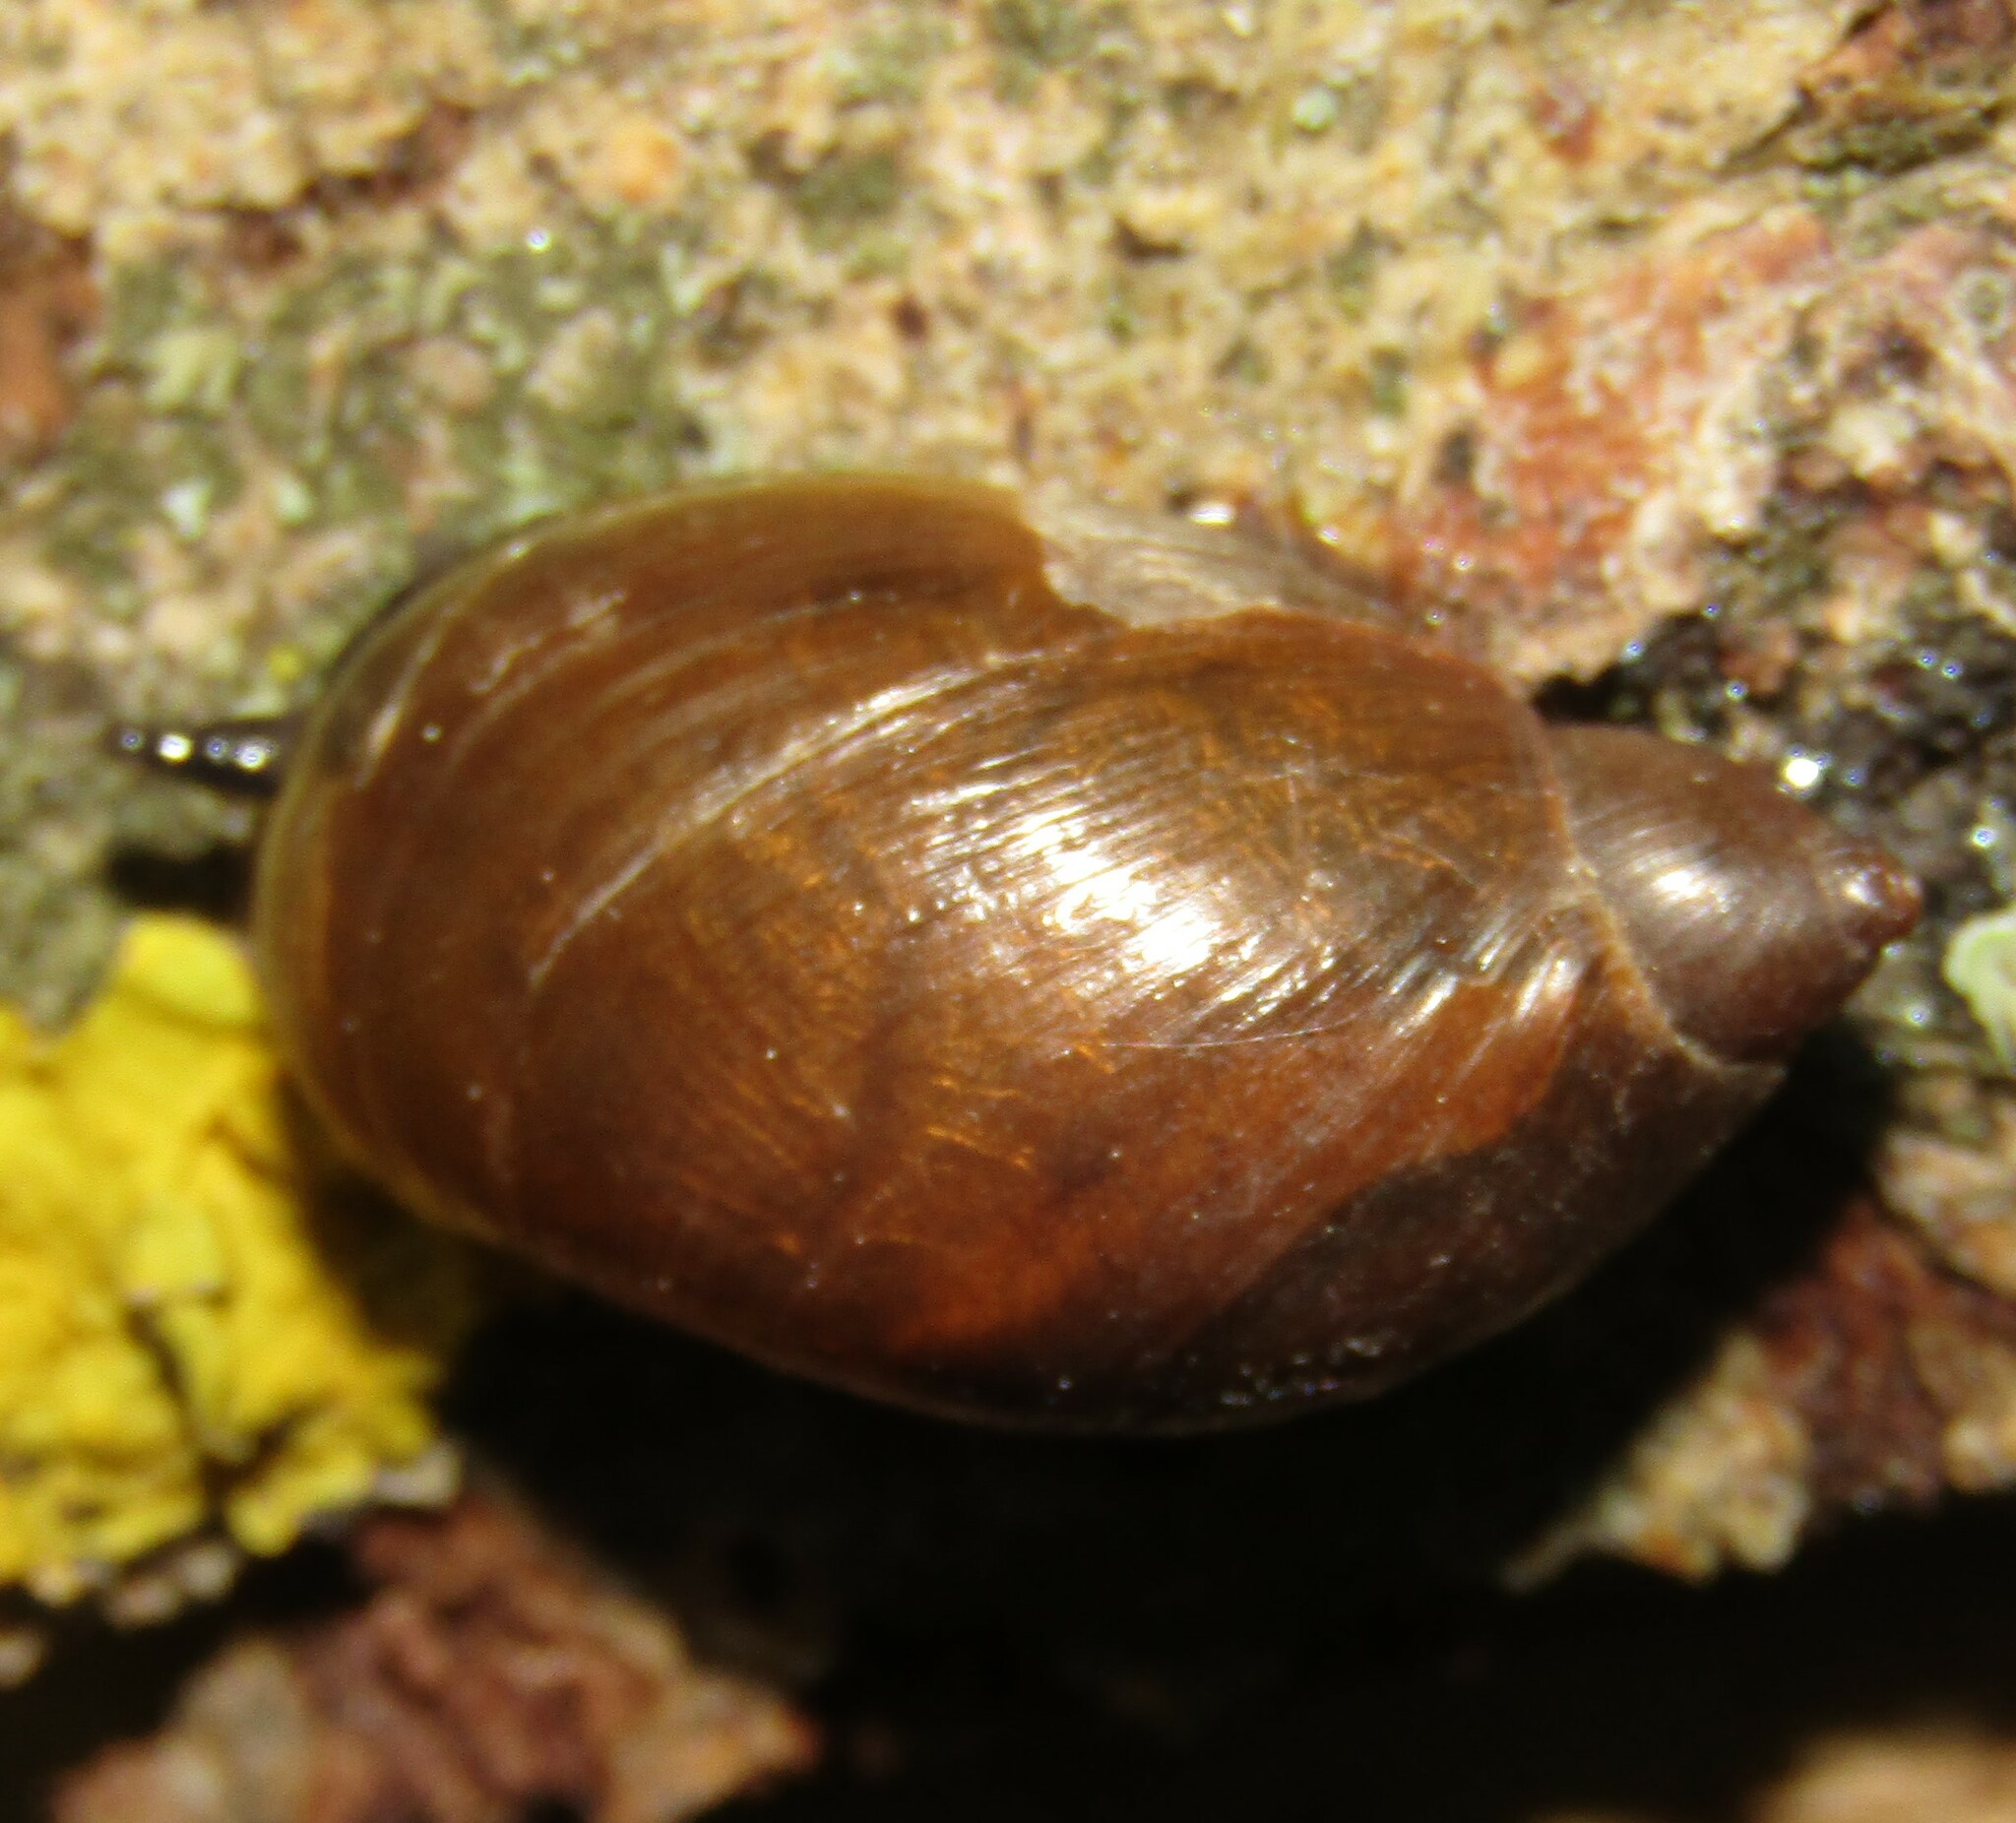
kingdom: Animalia
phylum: Mollusca
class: Gastropoda
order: Stylommatophora
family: Succineidae
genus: Succinea
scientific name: Succinea putris
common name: European ambersnail
